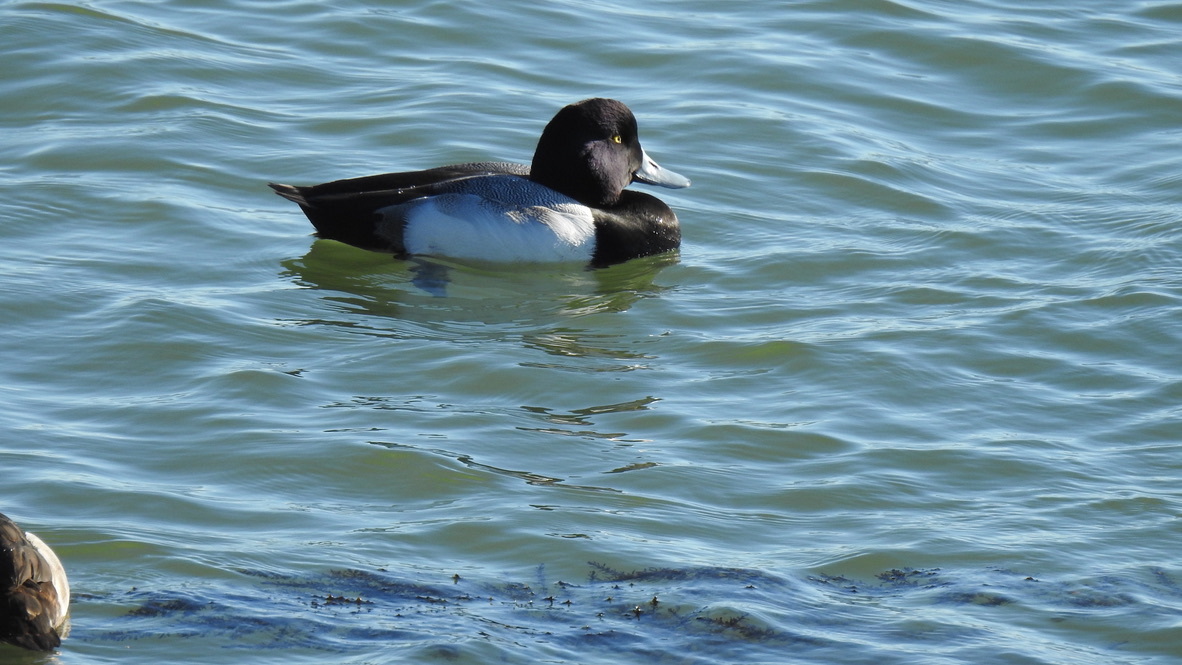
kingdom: Animalia
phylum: Chordata
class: Aves
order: Anseriformes
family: Anatidae
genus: Aythya
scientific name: Aythya affinis
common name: Lesser scaup
